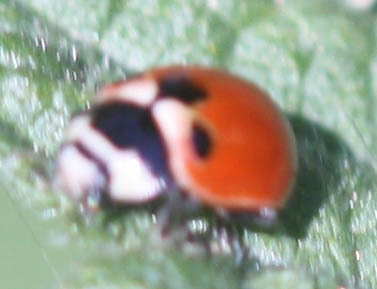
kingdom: Animalia
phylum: Arthropoda
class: Insecta
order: Coleoptera
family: Coccinellidae
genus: Coccinella
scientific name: Coccinella trifasciata
